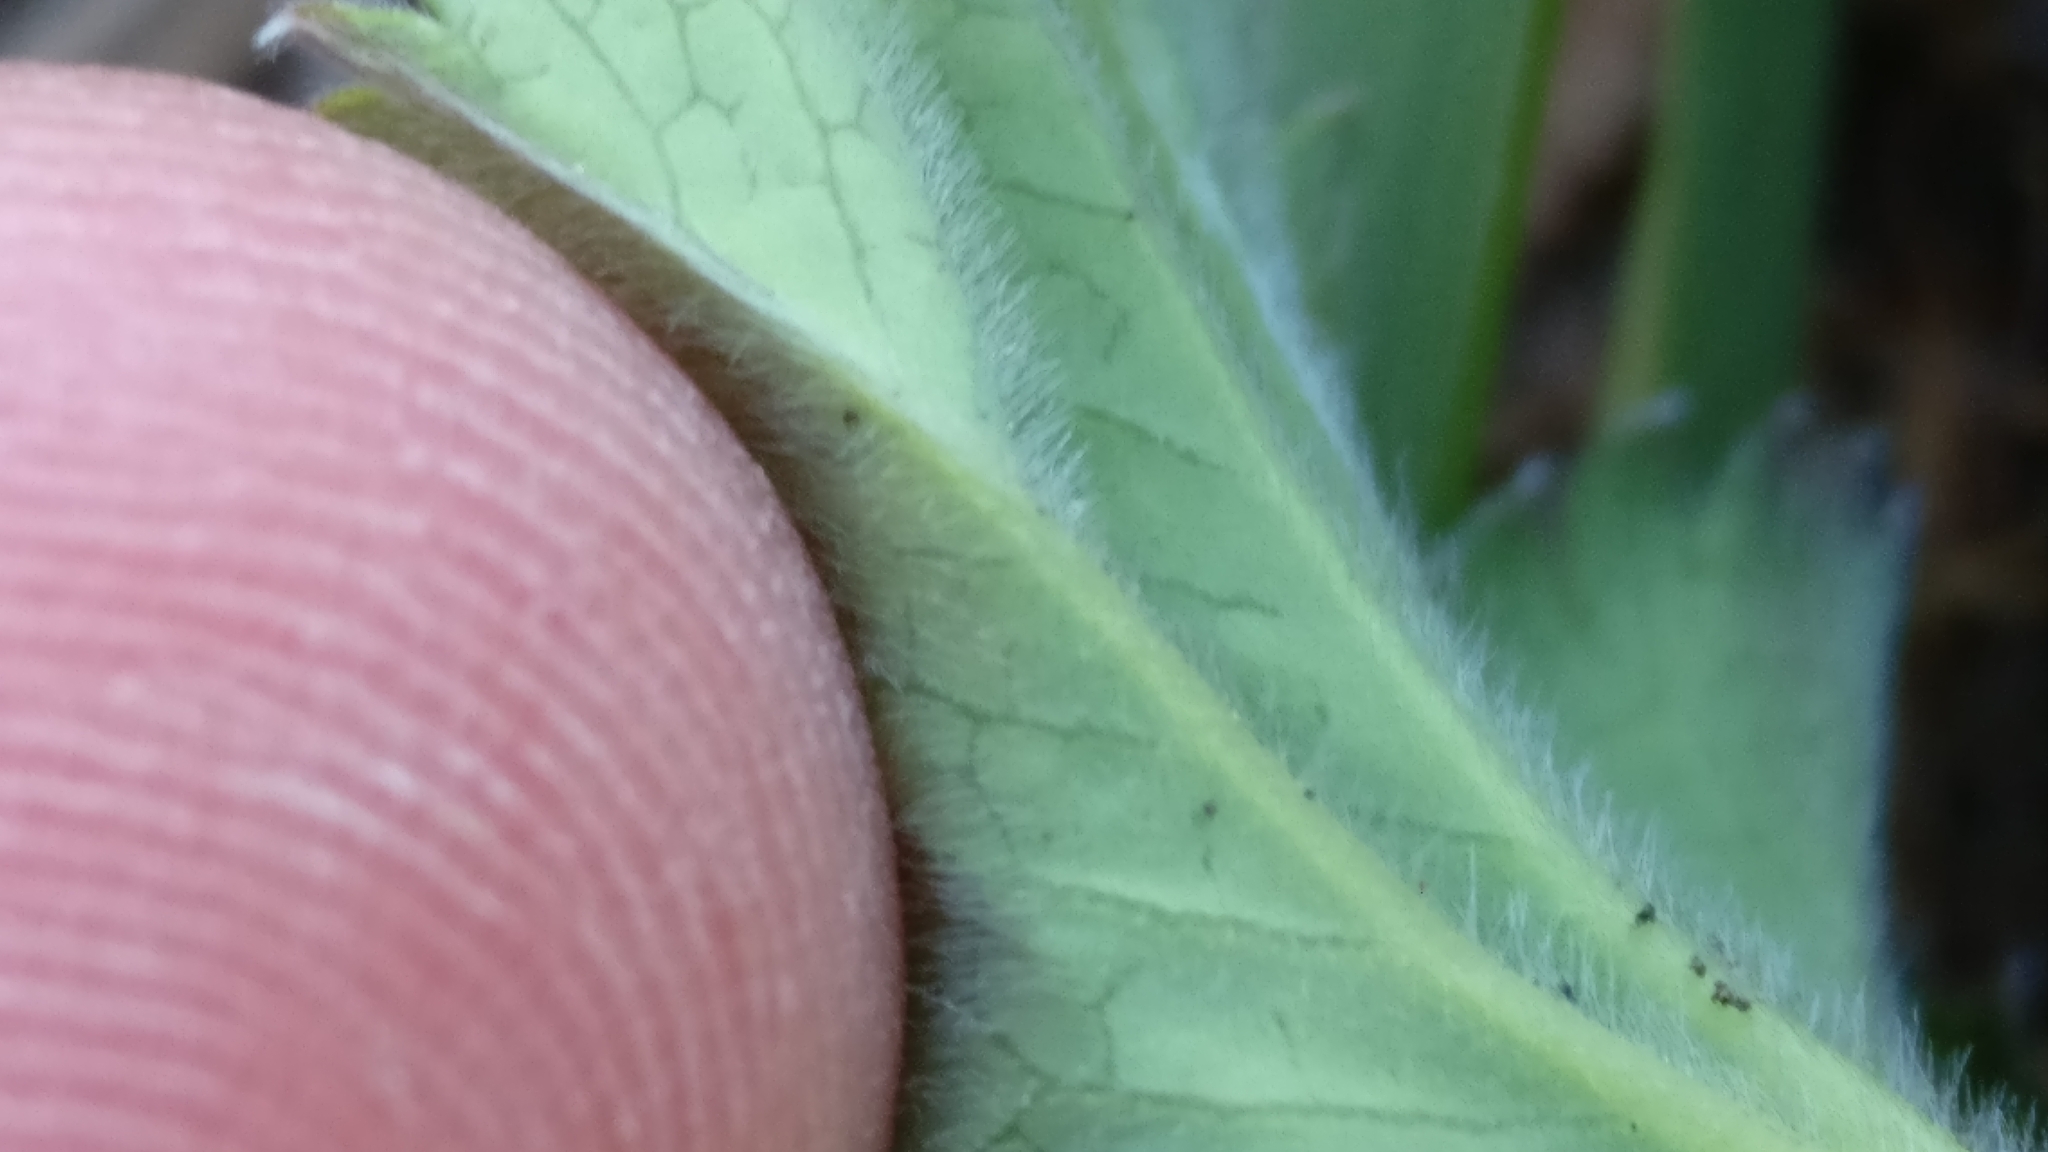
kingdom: Plantae
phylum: Tracheophyta
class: Magnoliopsida
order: Rosales
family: Rosaceae
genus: Alchemilla
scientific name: Alchemilla monticola
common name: Hairy lady's mantle
